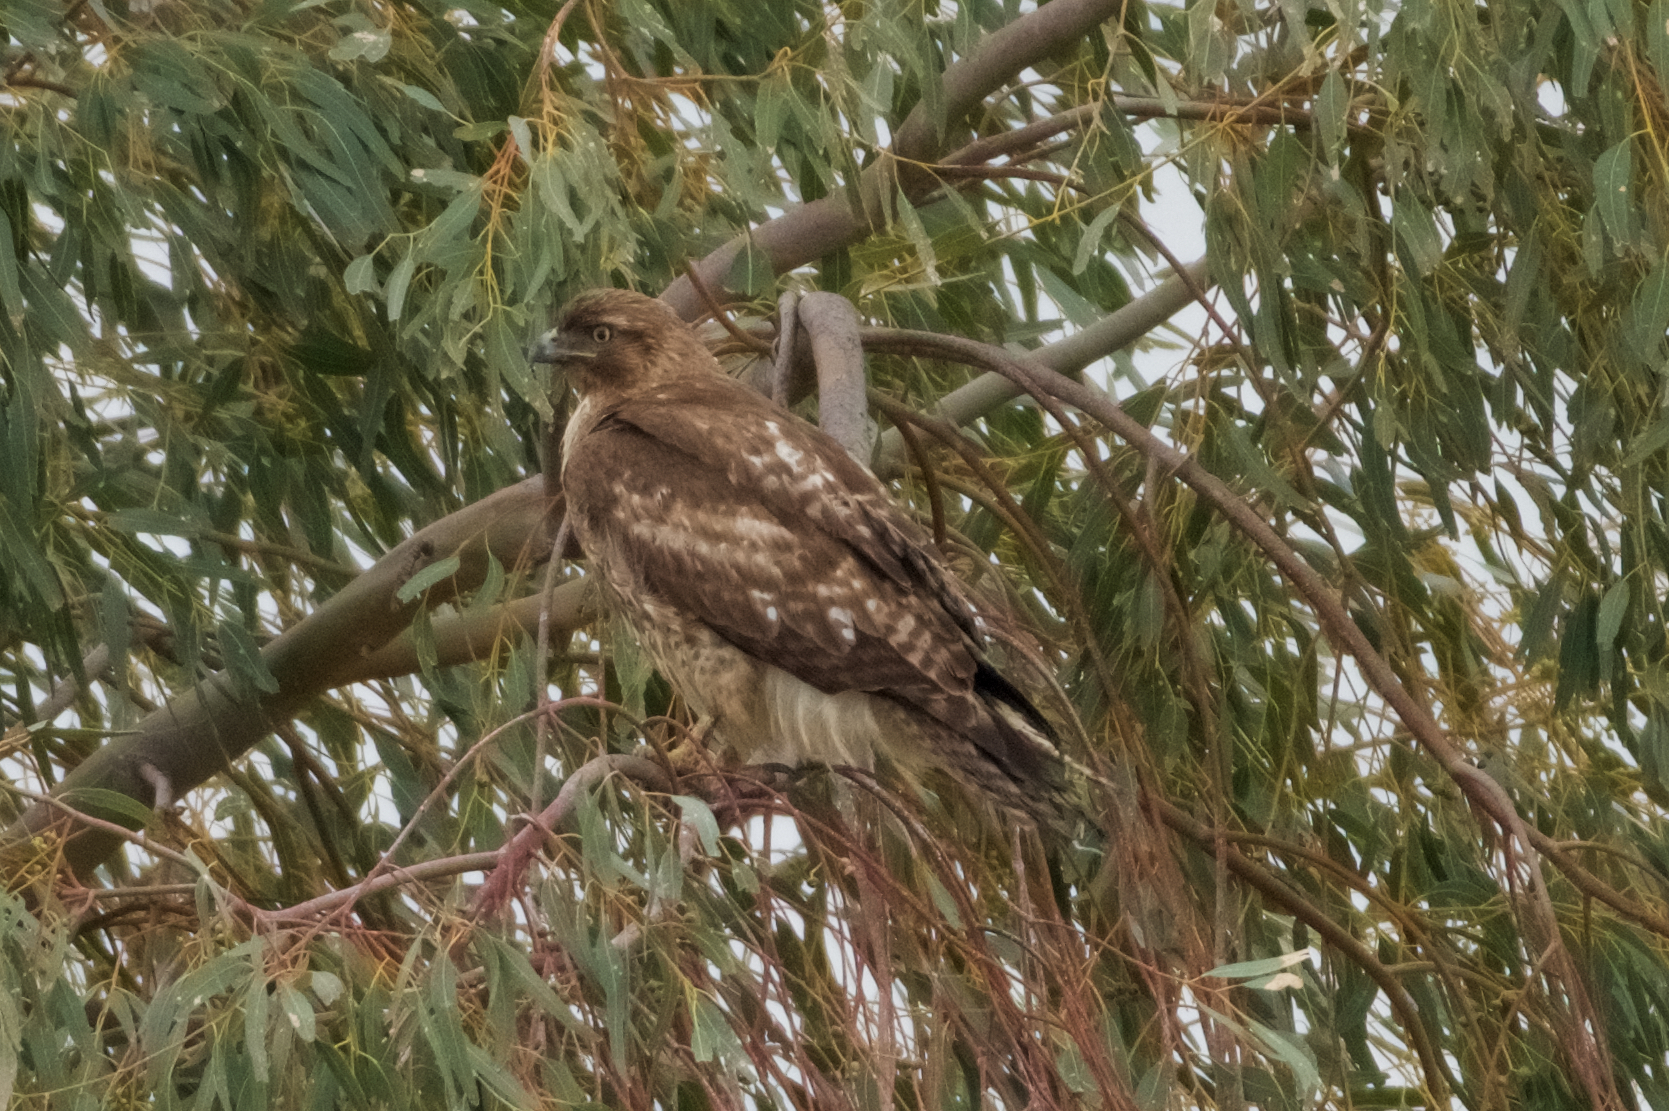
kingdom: Animalia
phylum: Chordata
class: Aves
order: Accipitriformes
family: Accipitridae
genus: Buteo
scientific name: Buteo jamaicensis
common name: Red-tailed hawk
